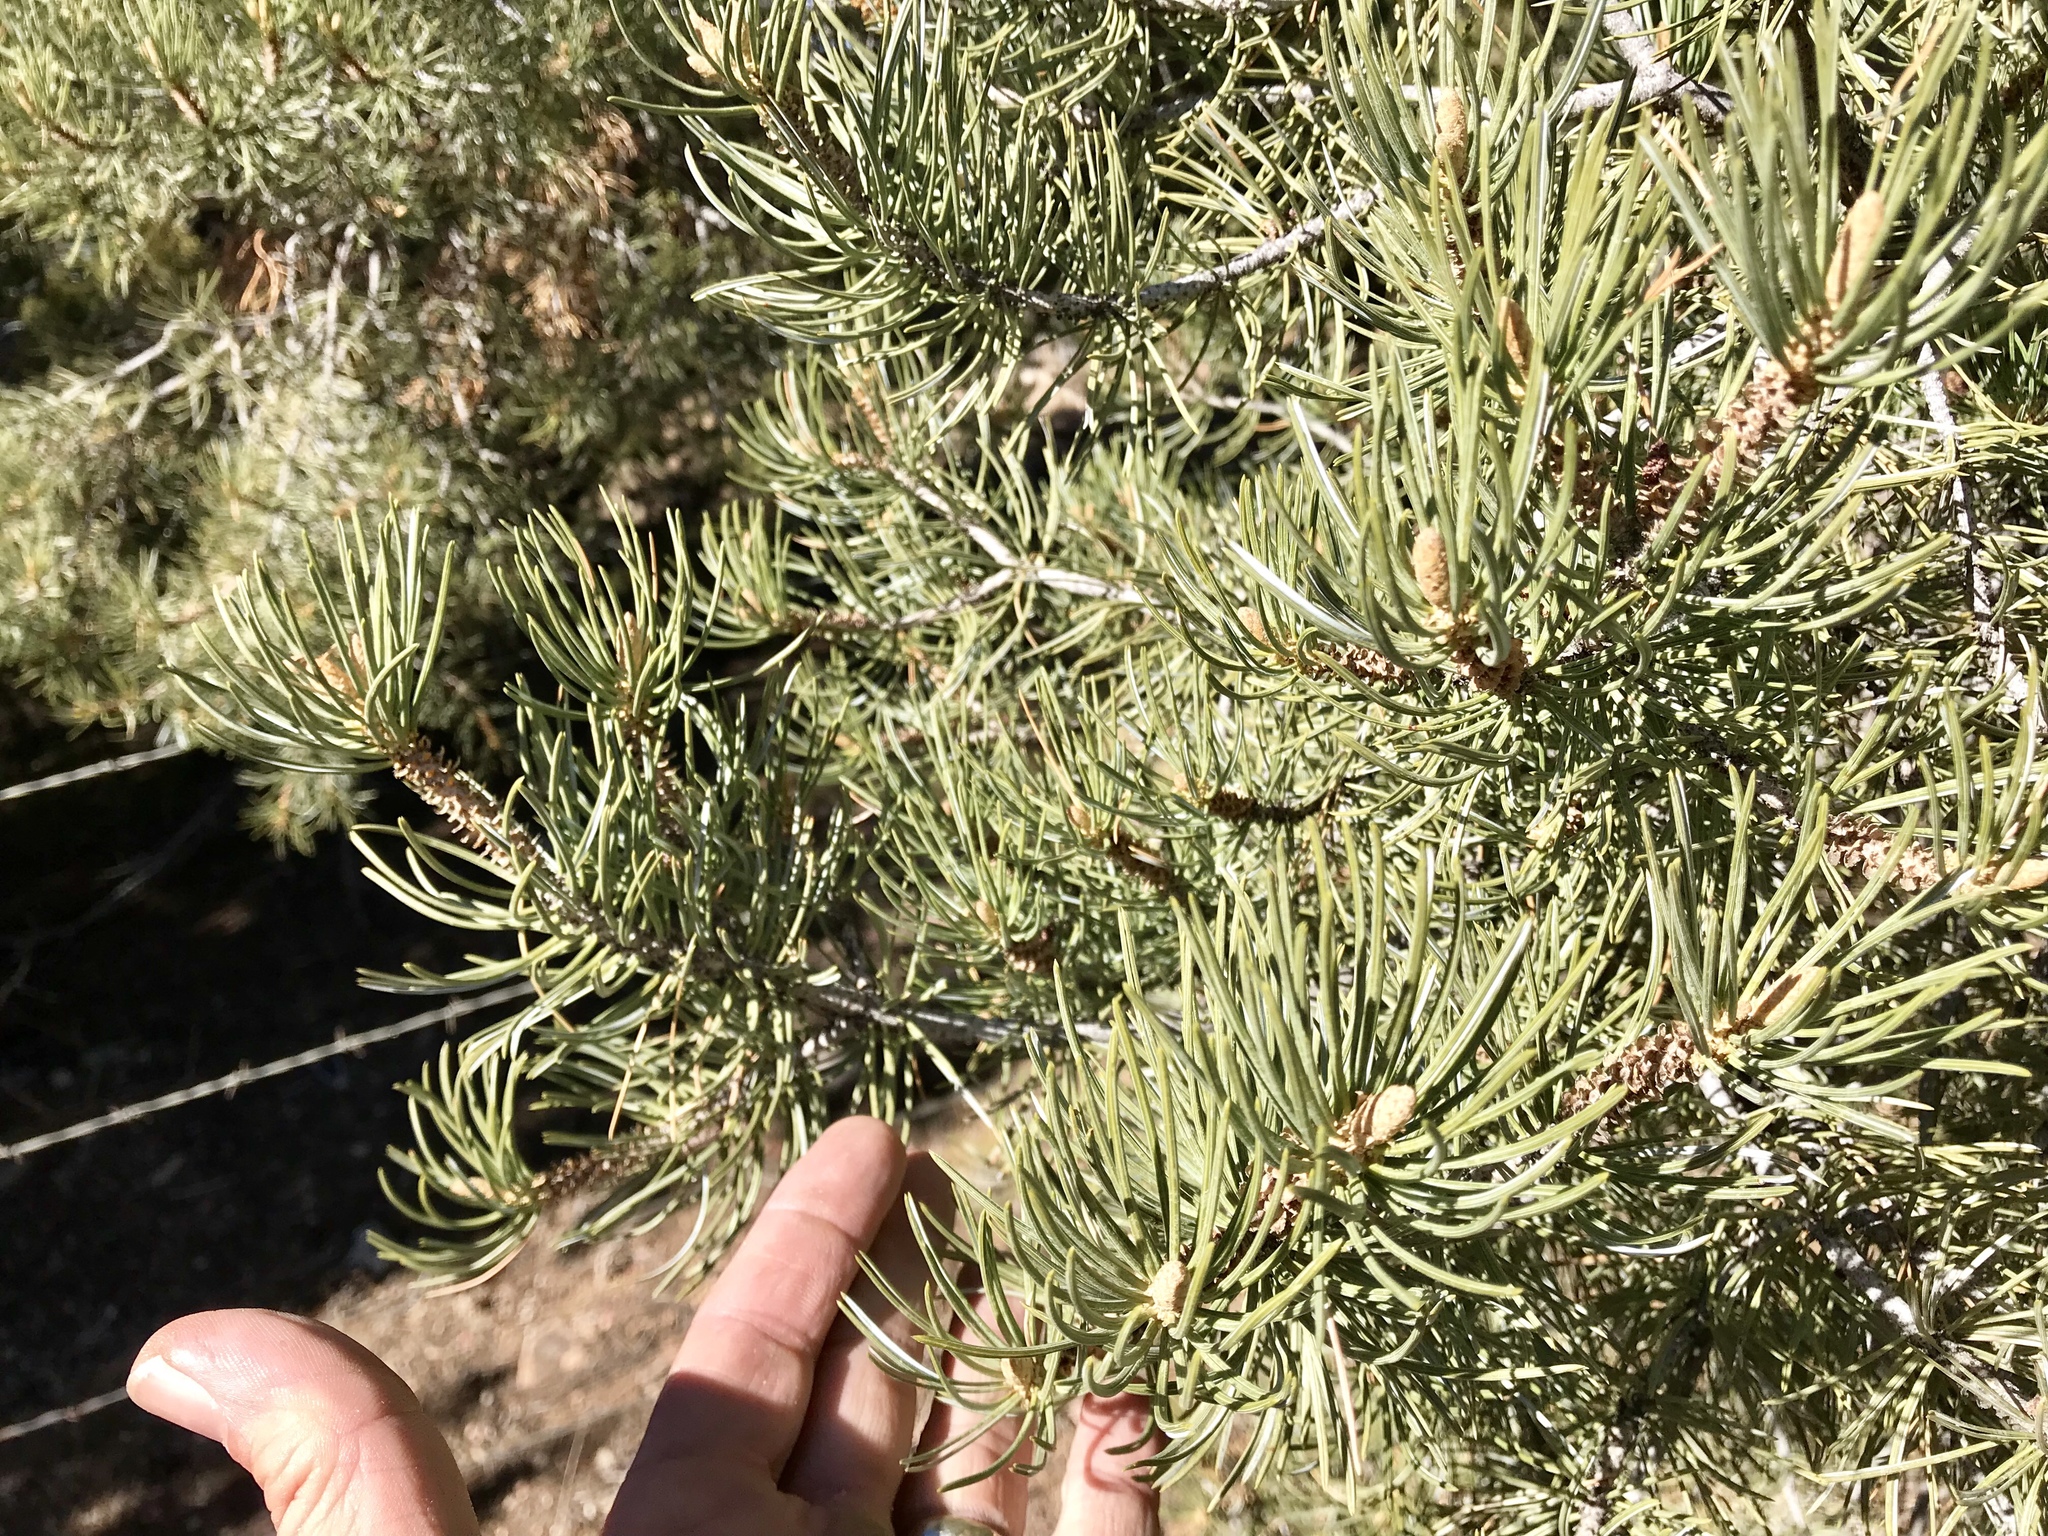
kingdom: Plantae
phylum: Tracheophyta
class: Pinopsida
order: Pinales
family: Pinaceae
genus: Pinus
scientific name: Pinus edulis
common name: Colorado pinyon
